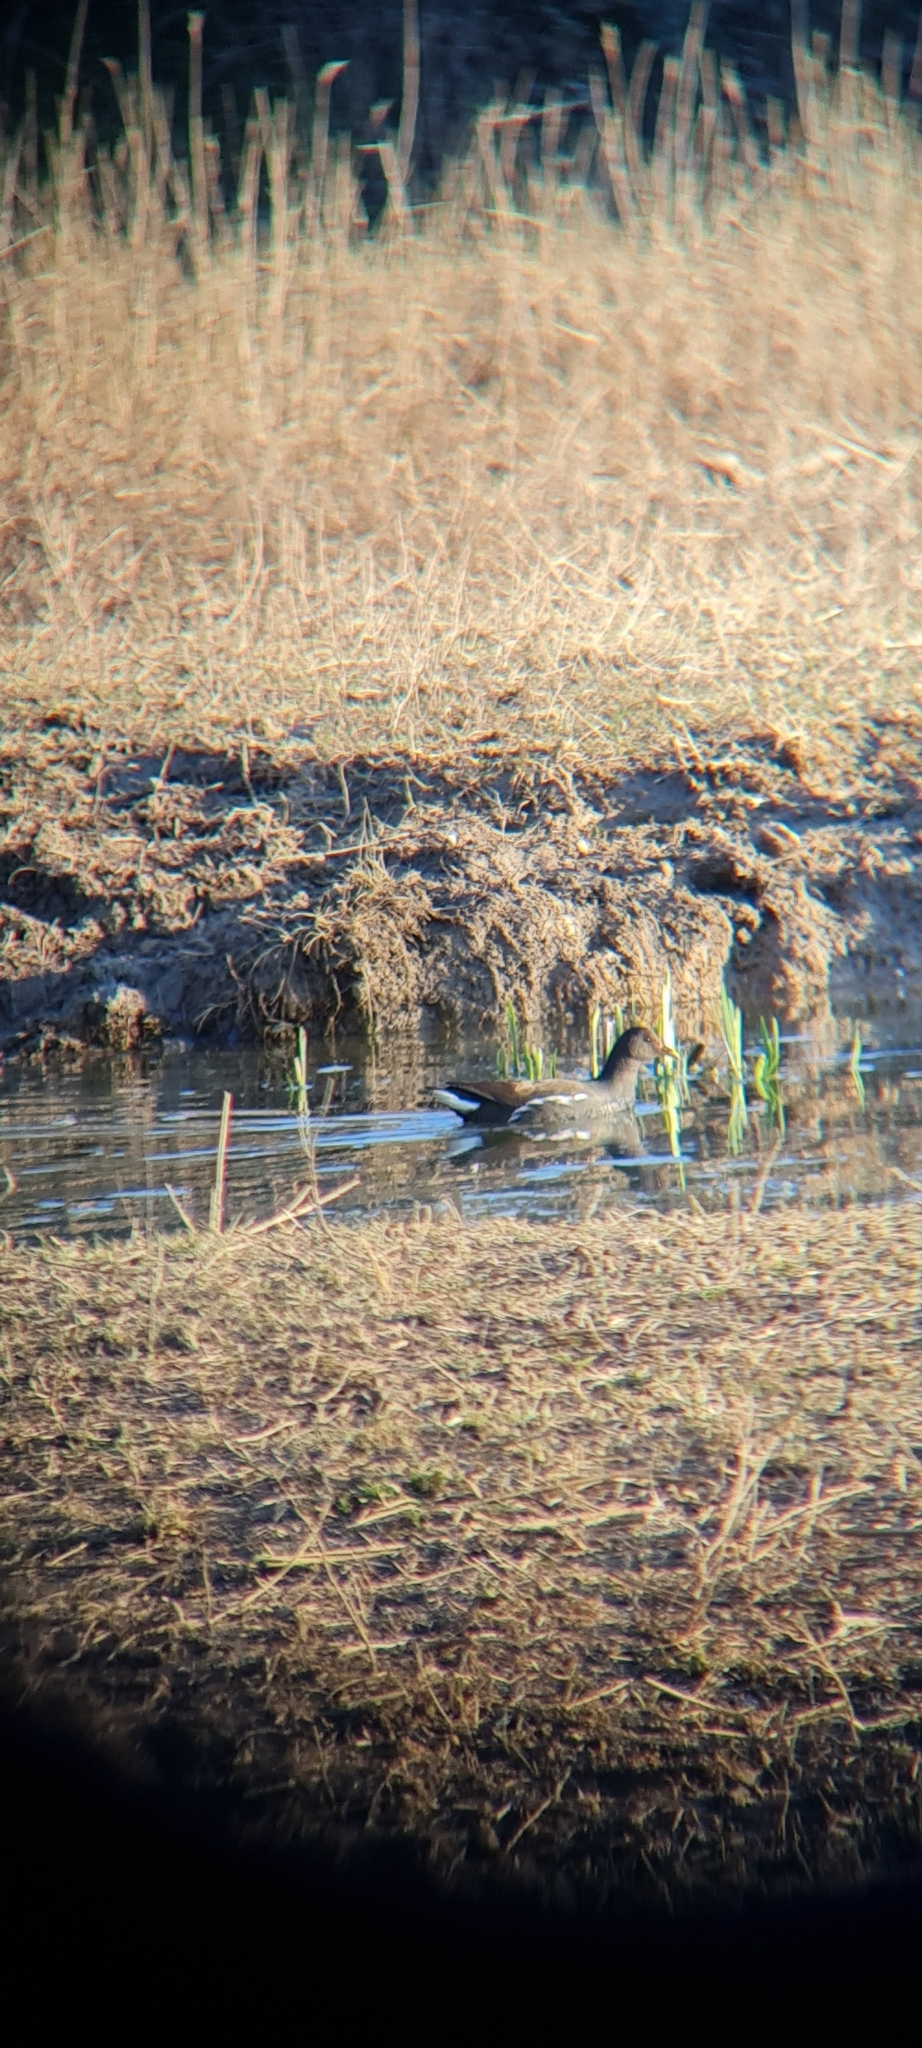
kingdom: Animalia
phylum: Chordata
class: Aves
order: Gruiformes
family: Rallidae
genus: Gallinula
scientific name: Gallinula chloropus
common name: Common moorhen
